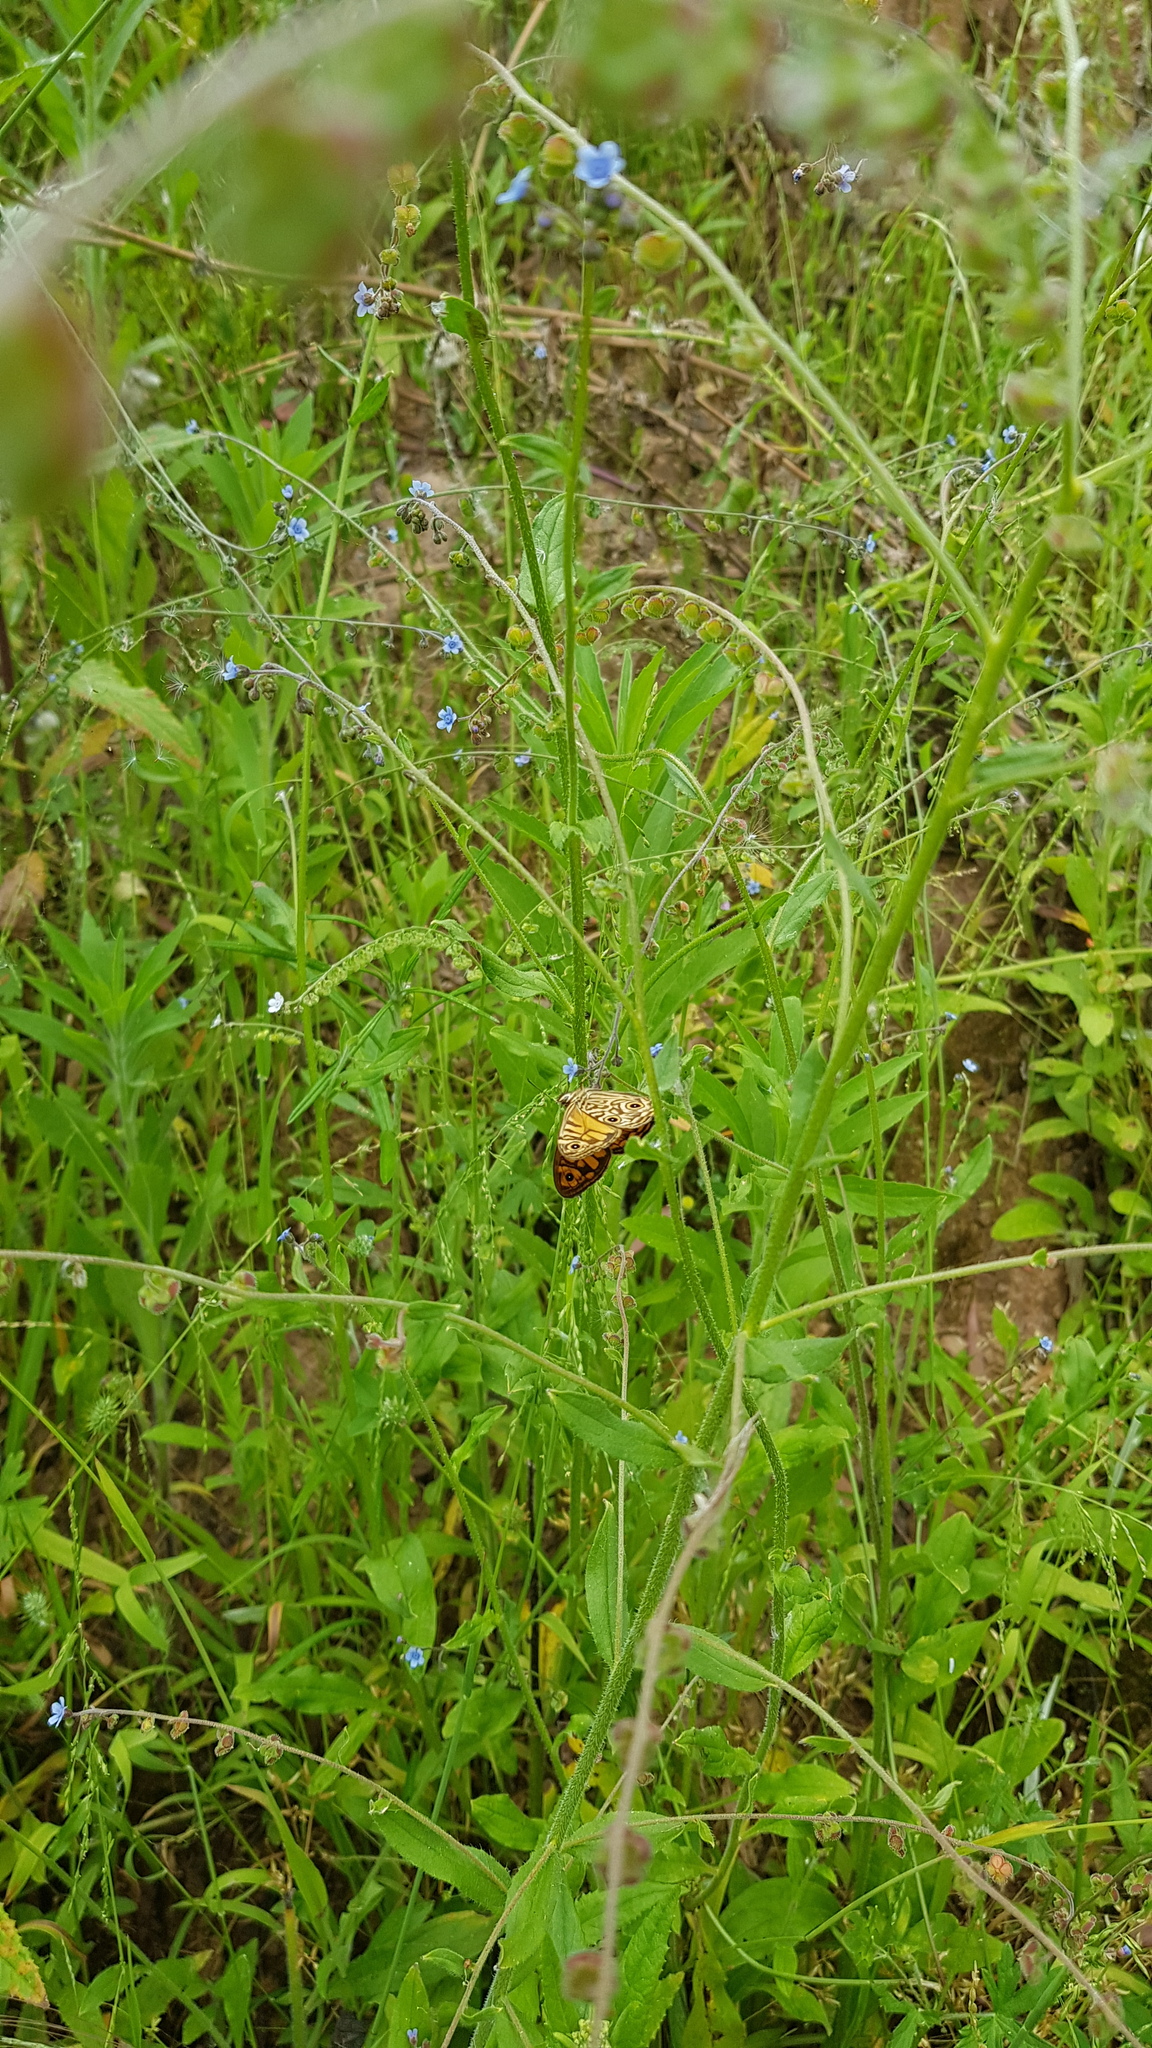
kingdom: Animalia
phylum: Arthropoda
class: Insecta
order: Lepidoptera
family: Nymphalidae
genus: Geitoneura
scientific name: Geitoneura acantha
